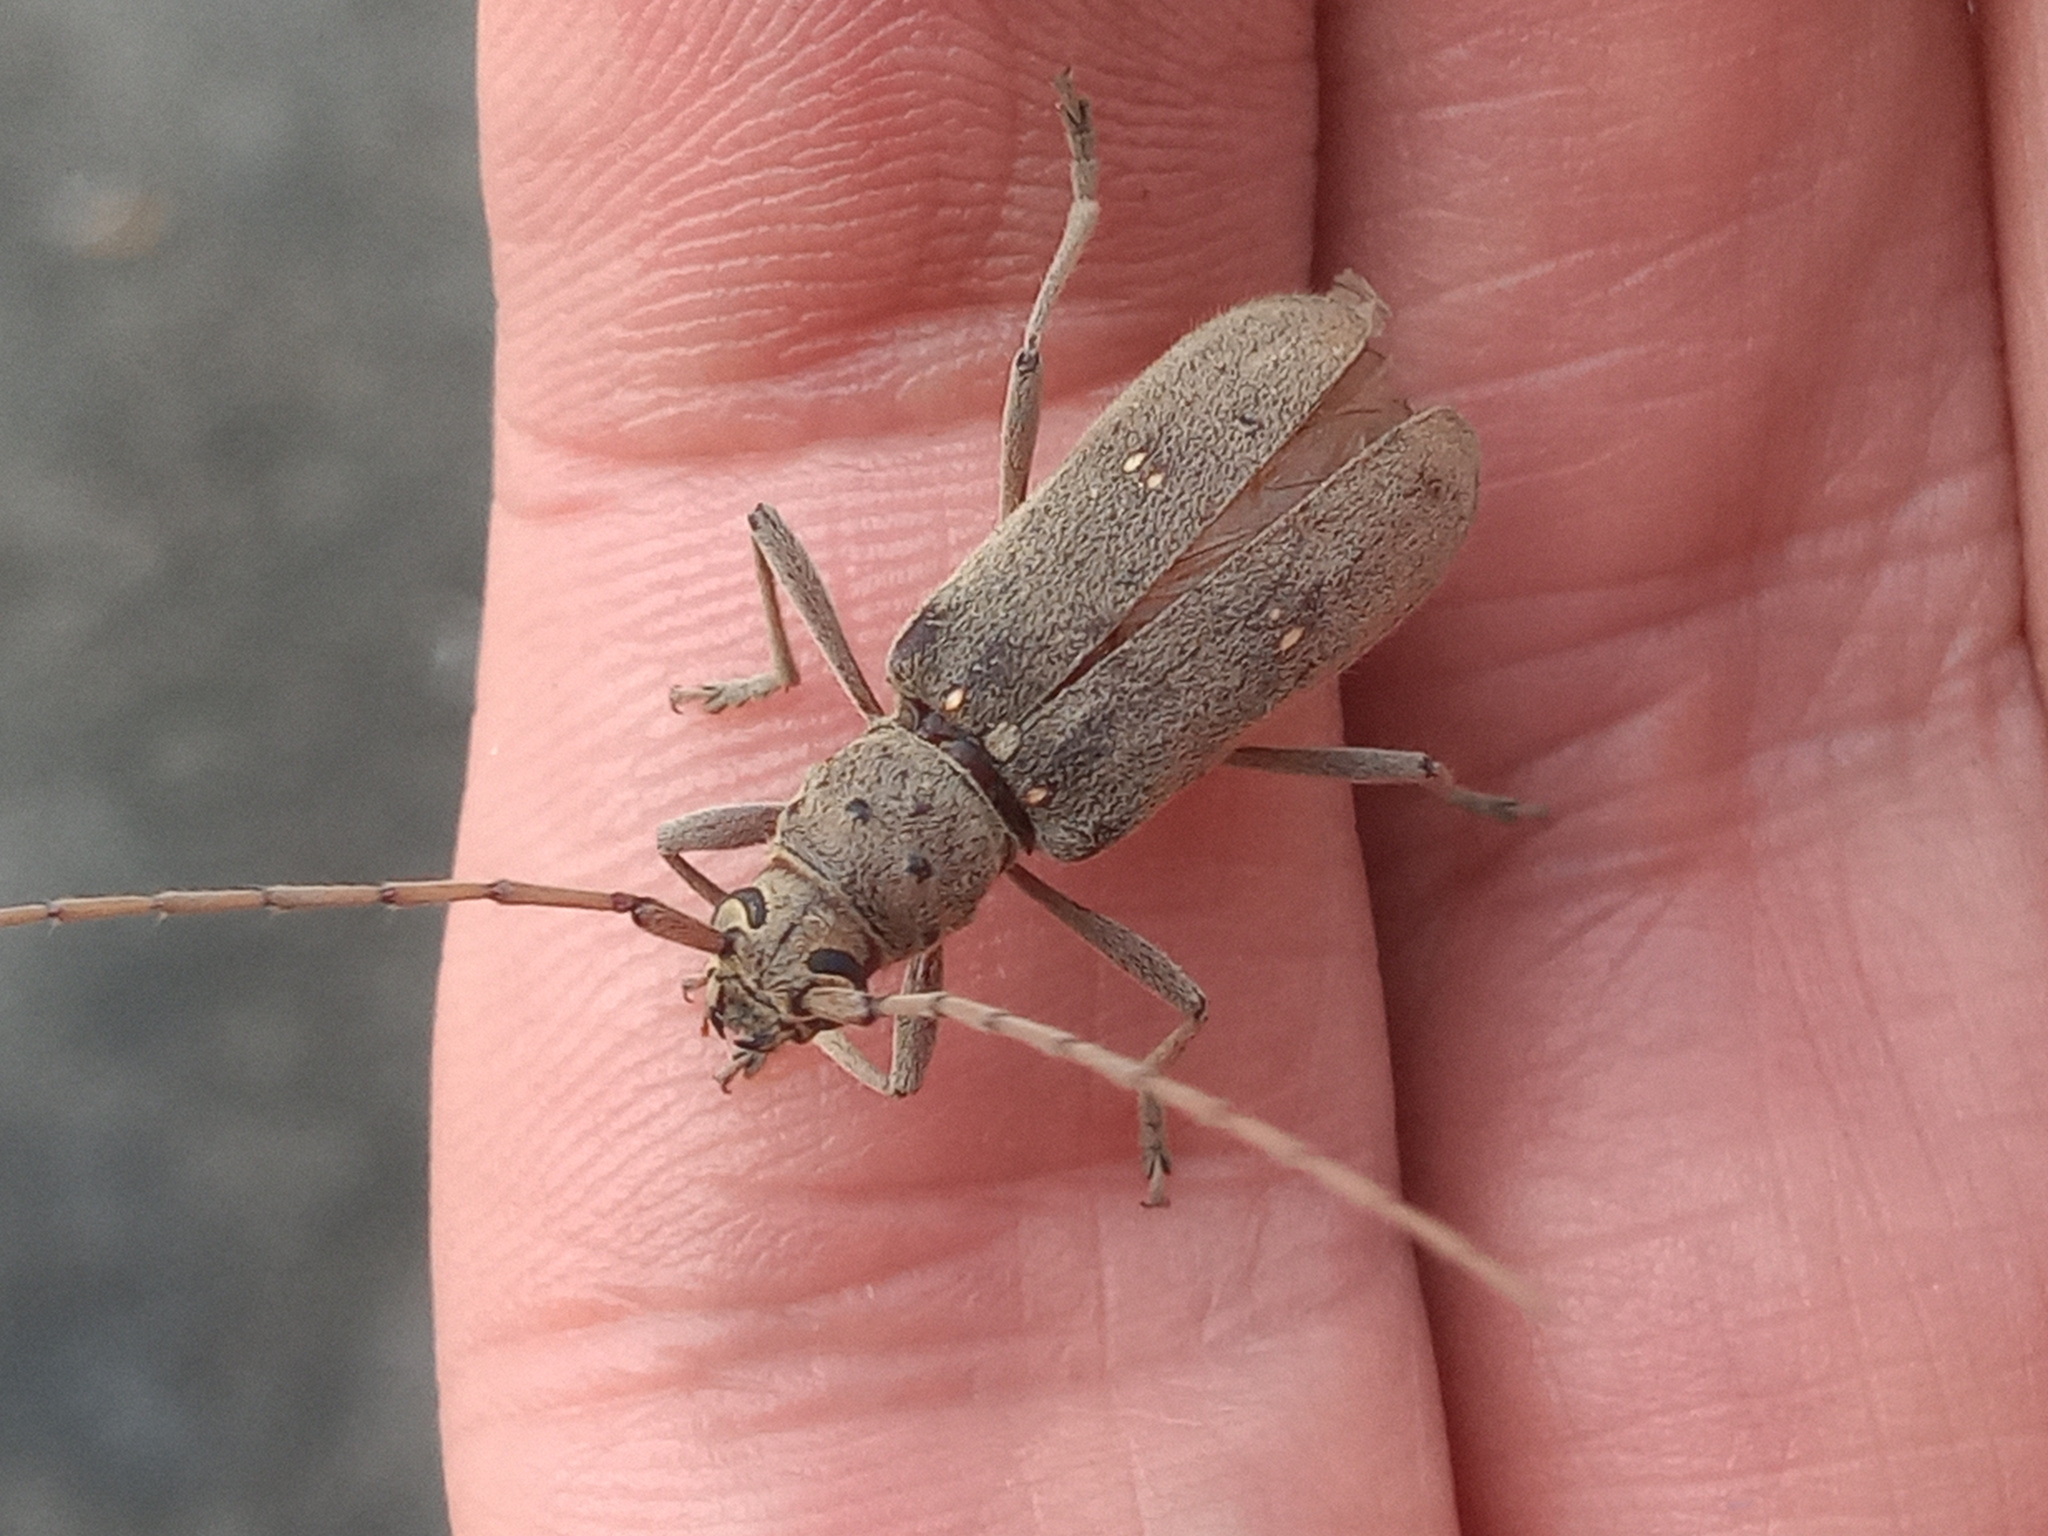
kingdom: Animalia
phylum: Arthropoda
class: Insecta
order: Coleoptera
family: Cerambycidae
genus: Eburia
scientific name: Eburia mutica
